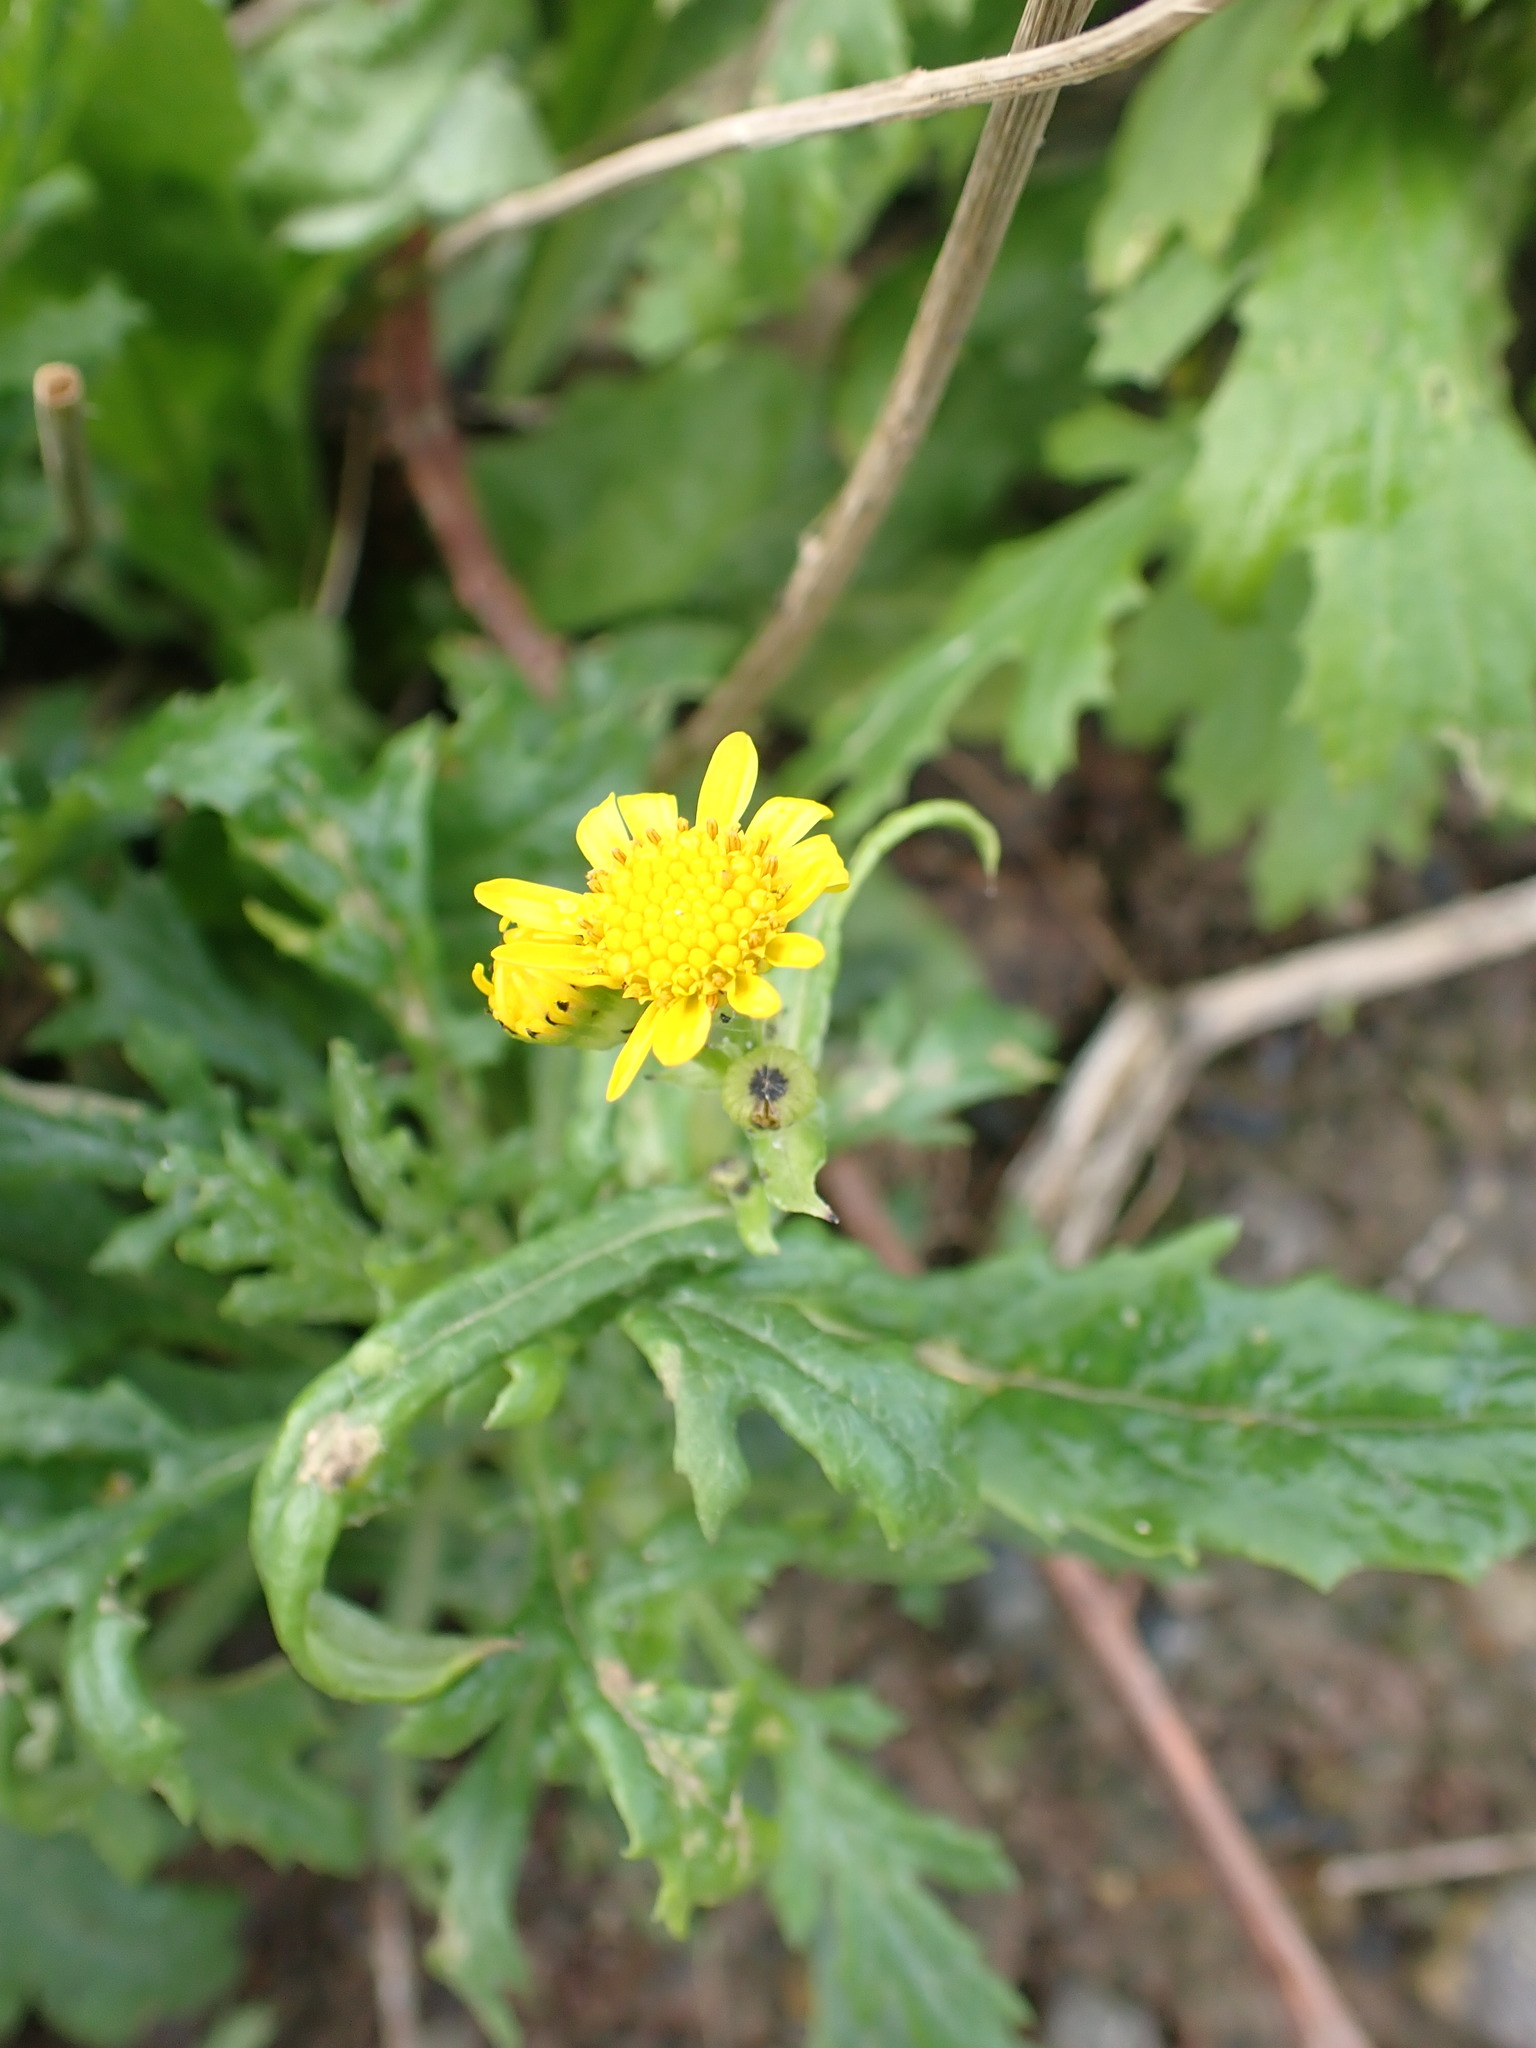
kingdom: Plantae
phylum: Tracheophyta
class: Magnoliopsida
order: Asterales
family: Asteraceae
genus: Senecio
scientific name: Senecio squalidus
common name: Oxford ragwort
